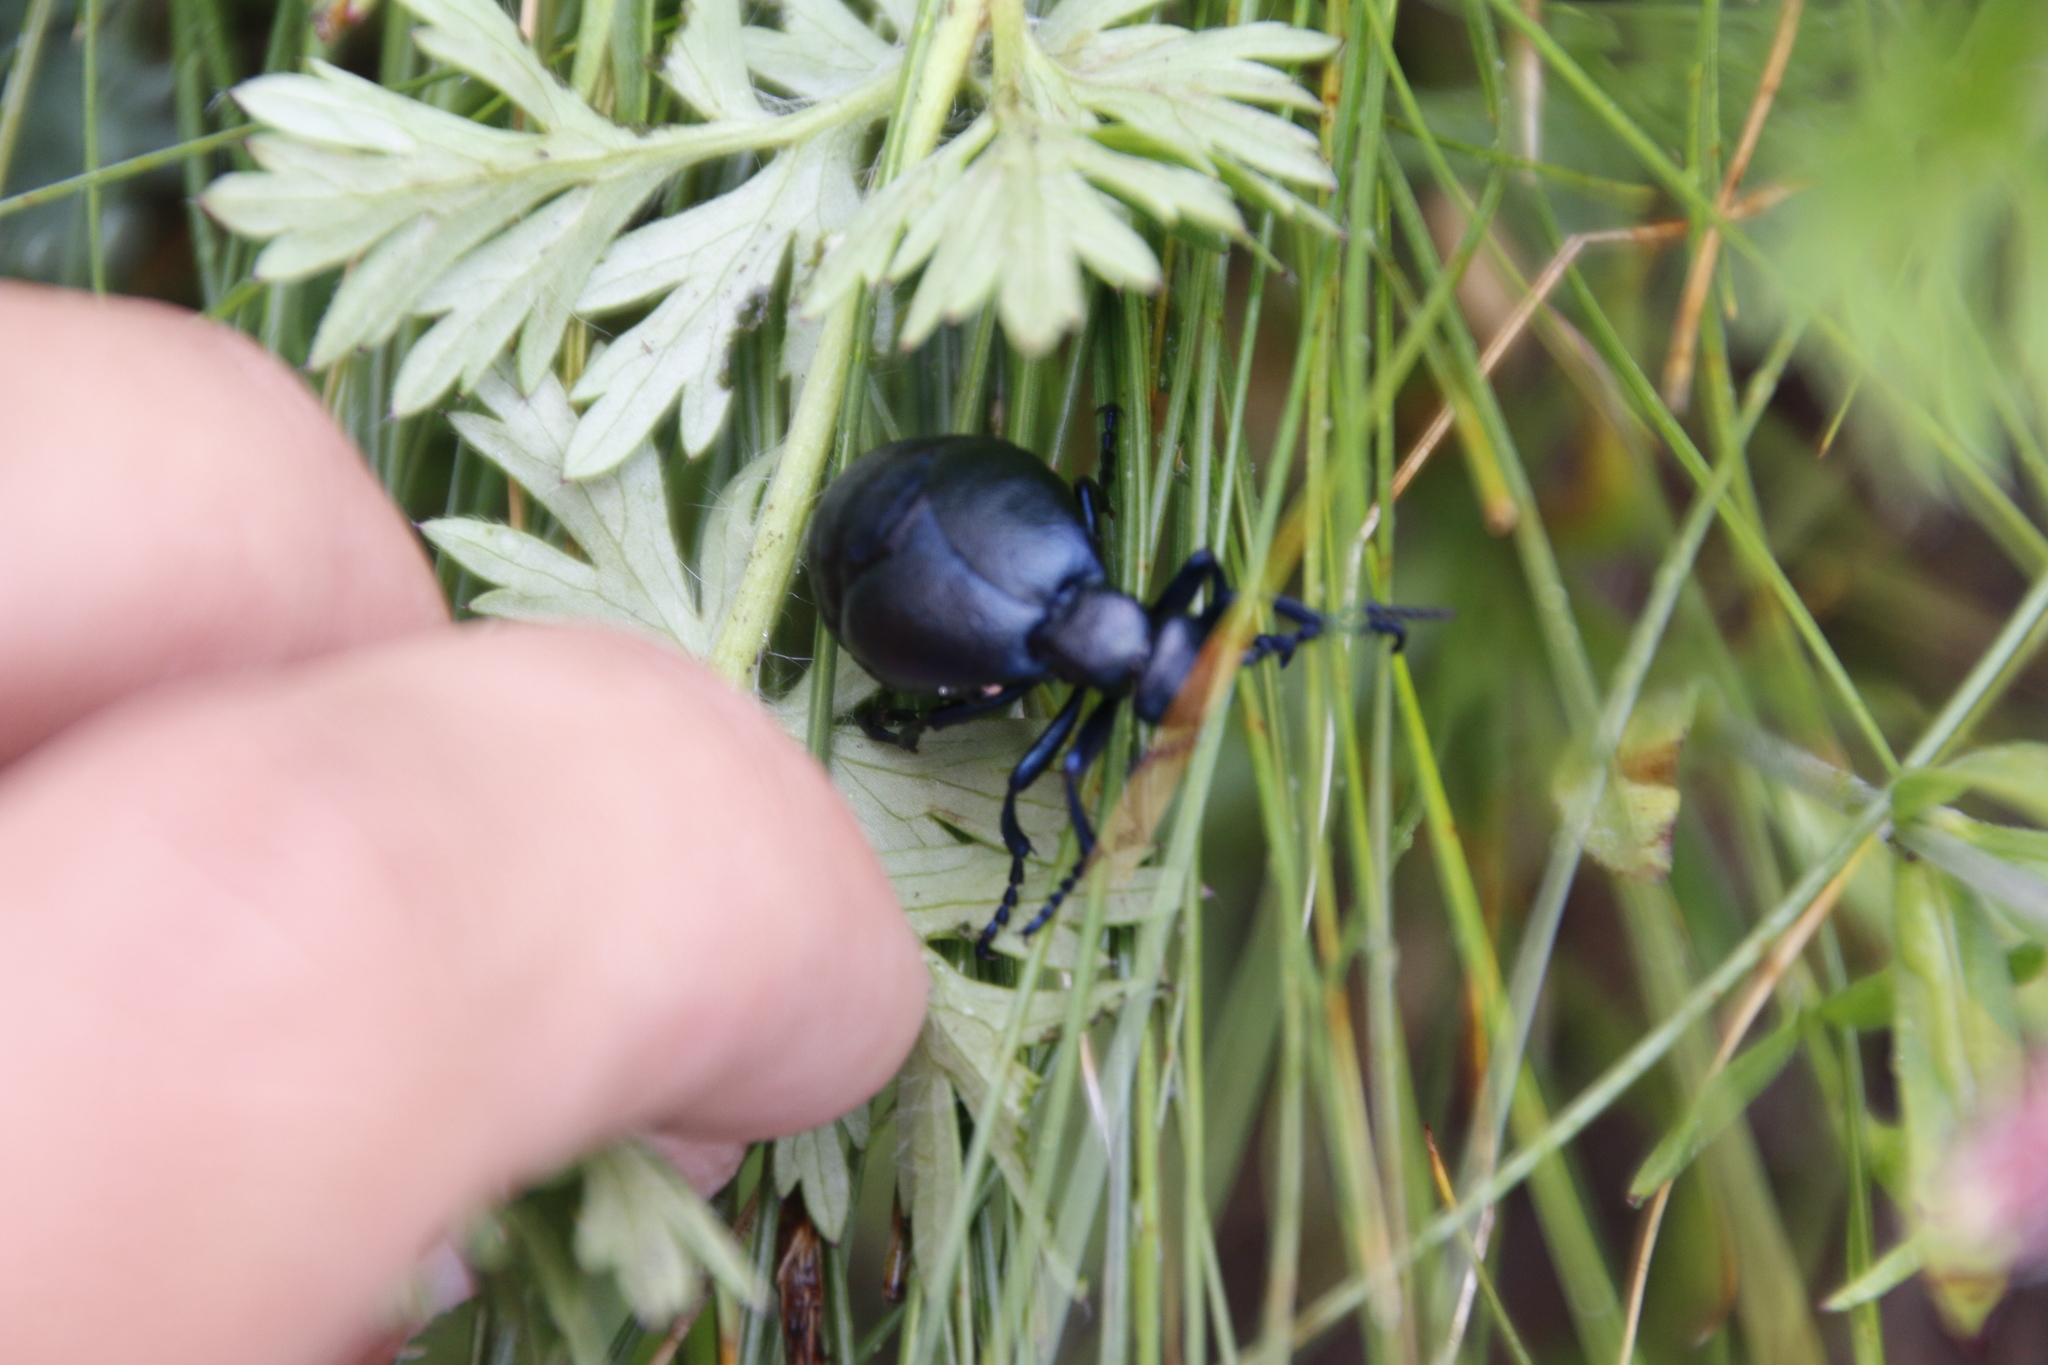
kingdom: Animalia
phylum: Arthropoda
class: Insecta
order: Coleoptera
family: Meloidae
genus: Meloe
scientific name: Meloe
